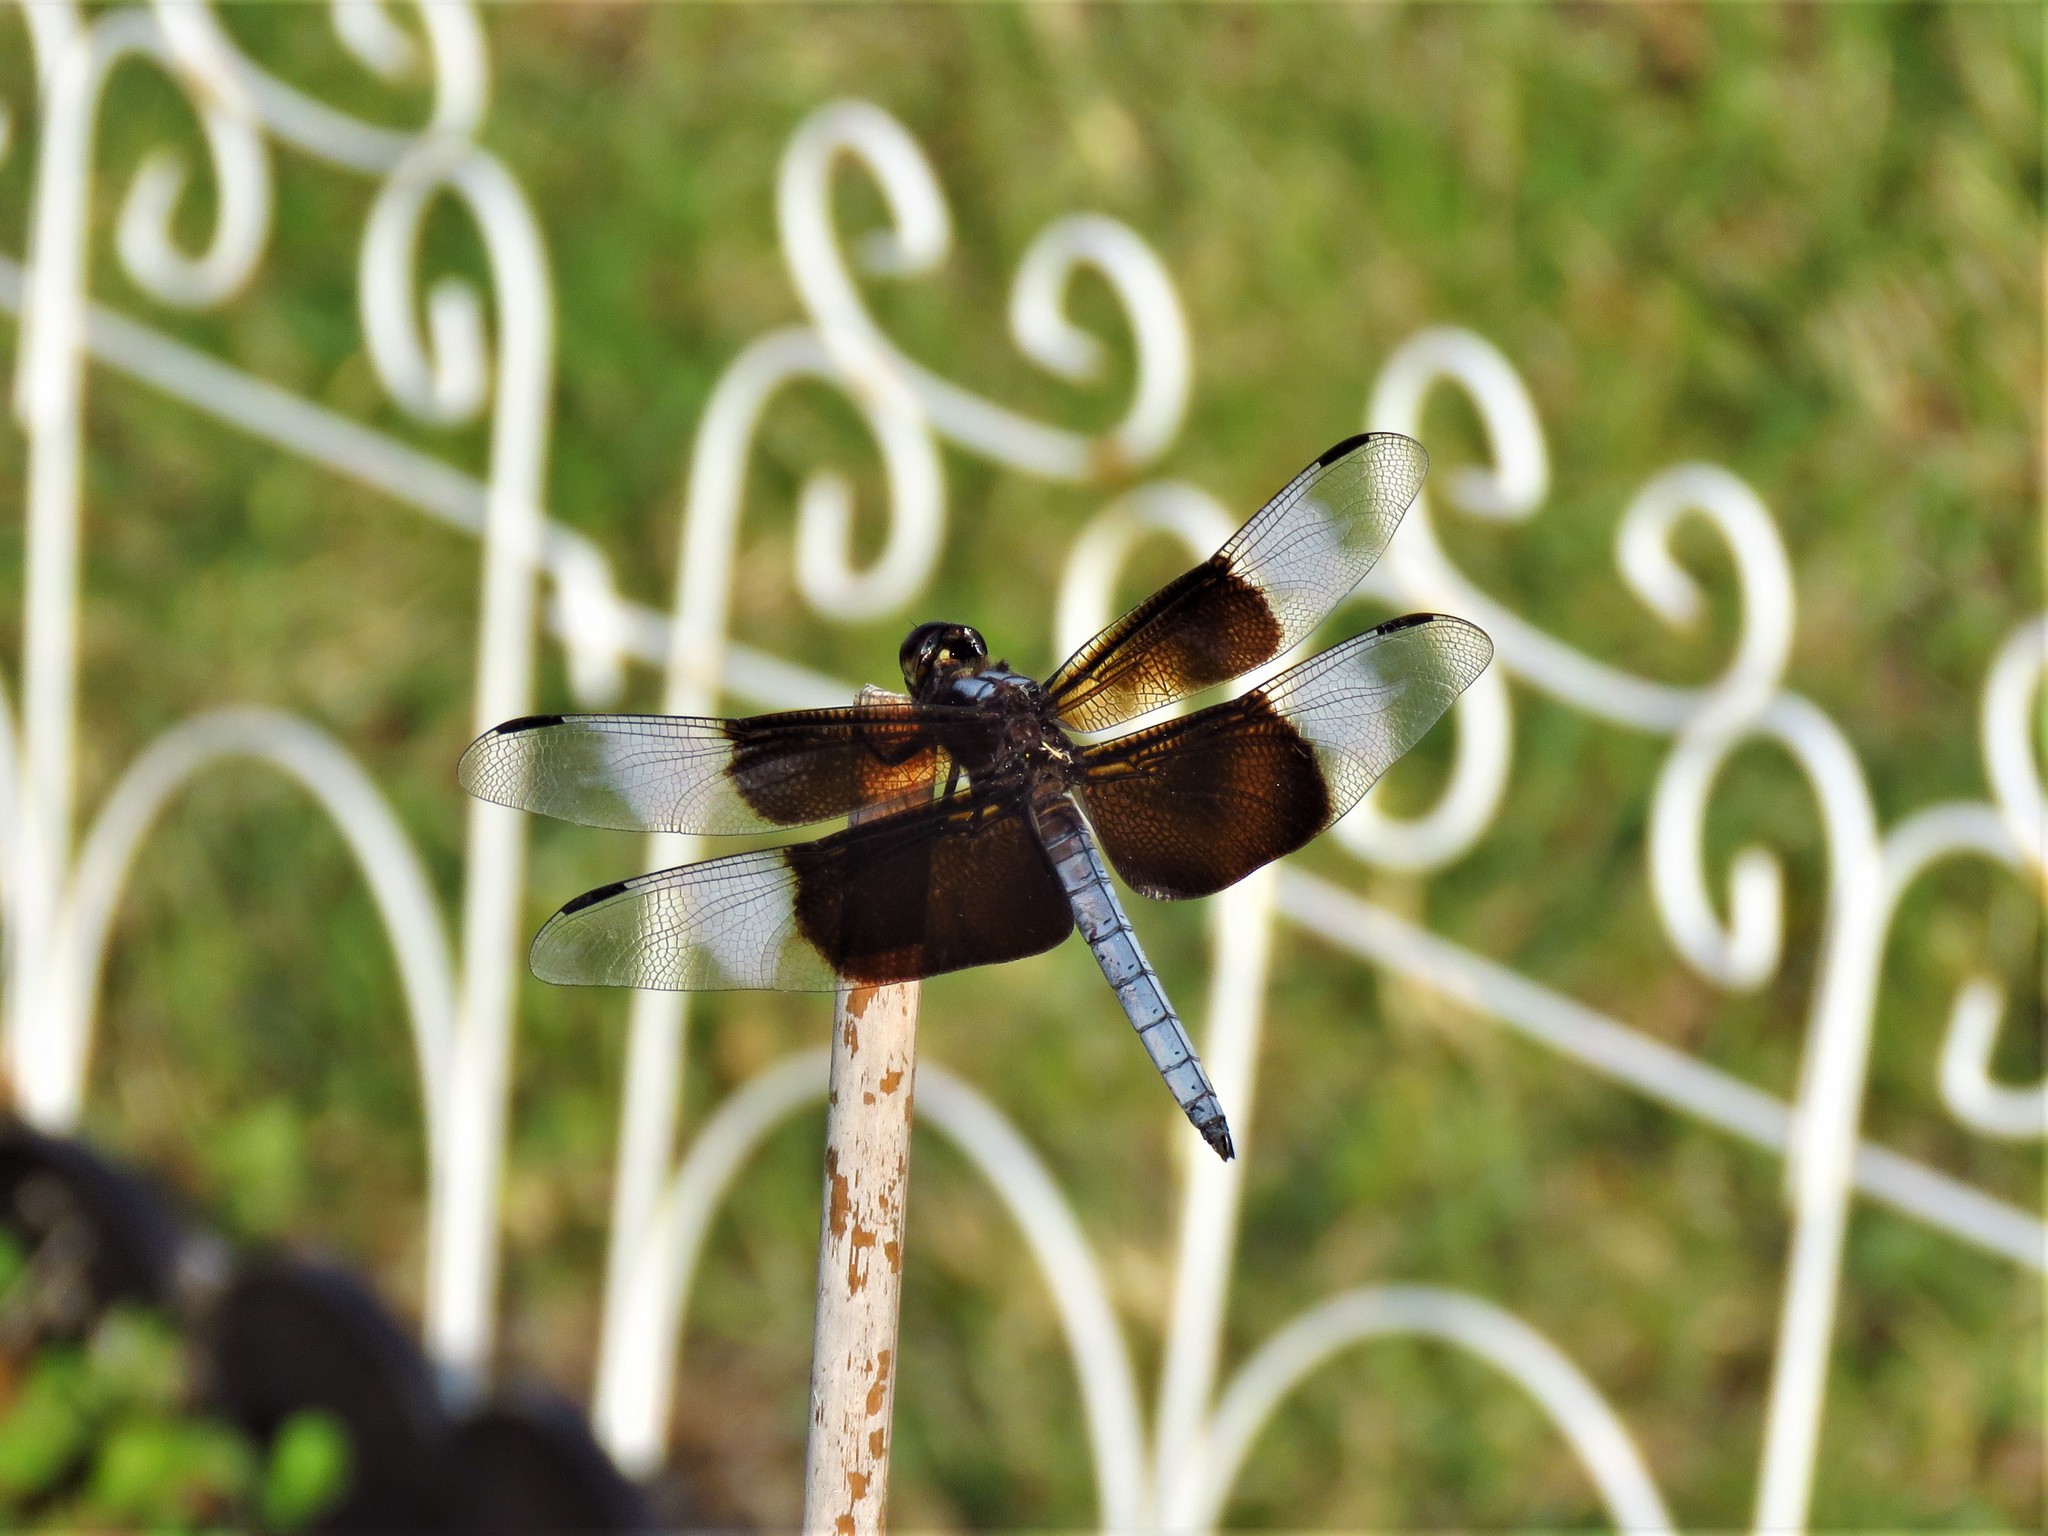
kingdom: Animalia
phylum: Arthropoda
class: Insecta
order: Odonata
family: Libellulidae
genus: Libellula
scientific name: Libellula luctuosa
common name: Widow skimmer
